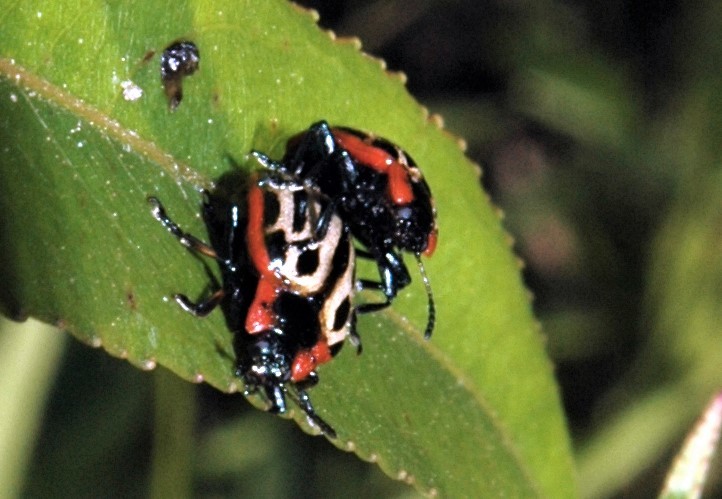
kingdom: Animalia
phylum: Arthropoda
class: Insecta
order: Coleoptera
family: Chrysomelidae
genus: Aethiopocassis
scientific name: Aethiopocassis scripta
